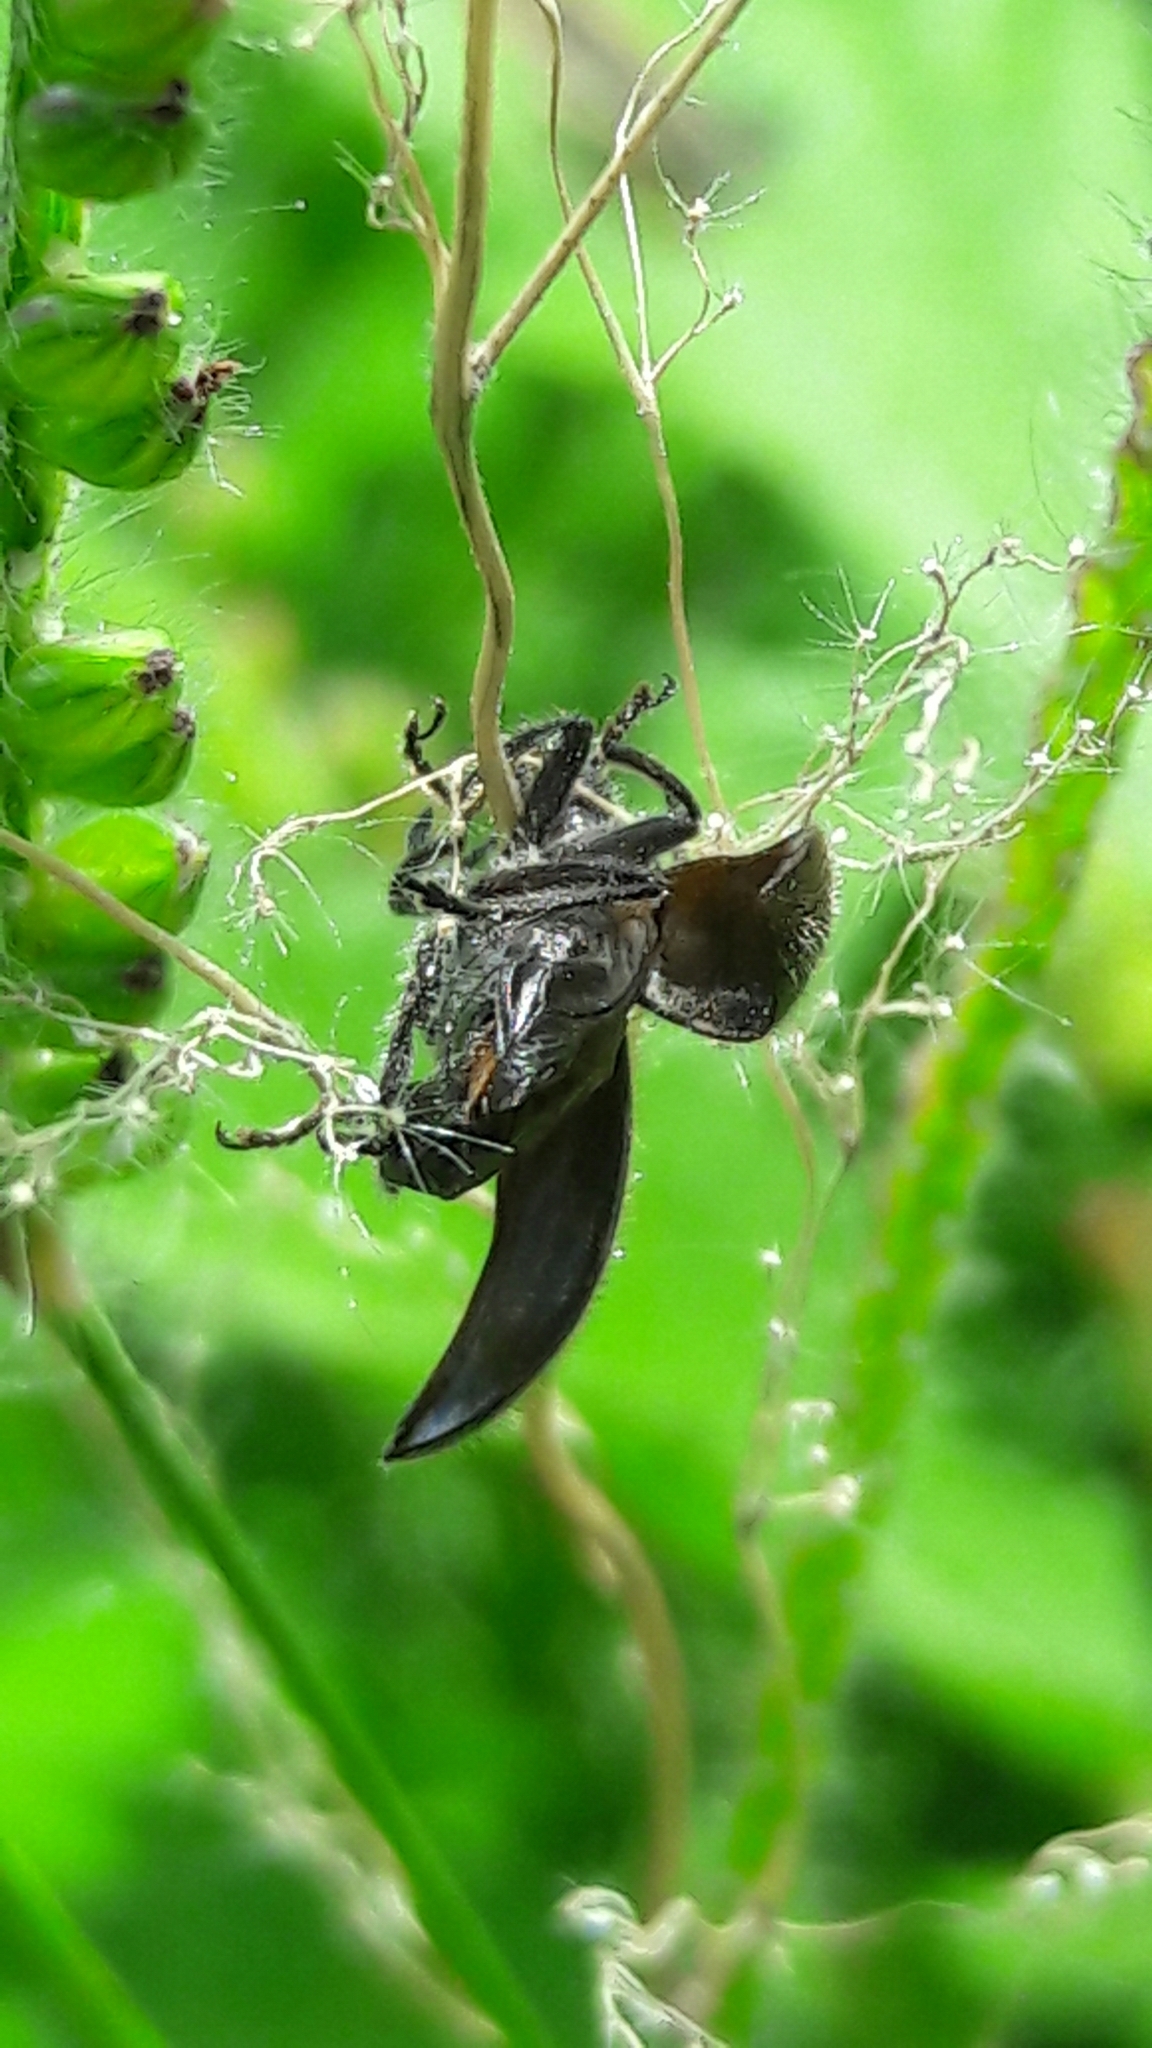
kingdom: Animalia
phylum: Arthropoda
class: Insecta
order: Coleoptera
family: Tenebrionidae
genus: Lagria
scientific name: Lagria villosa
